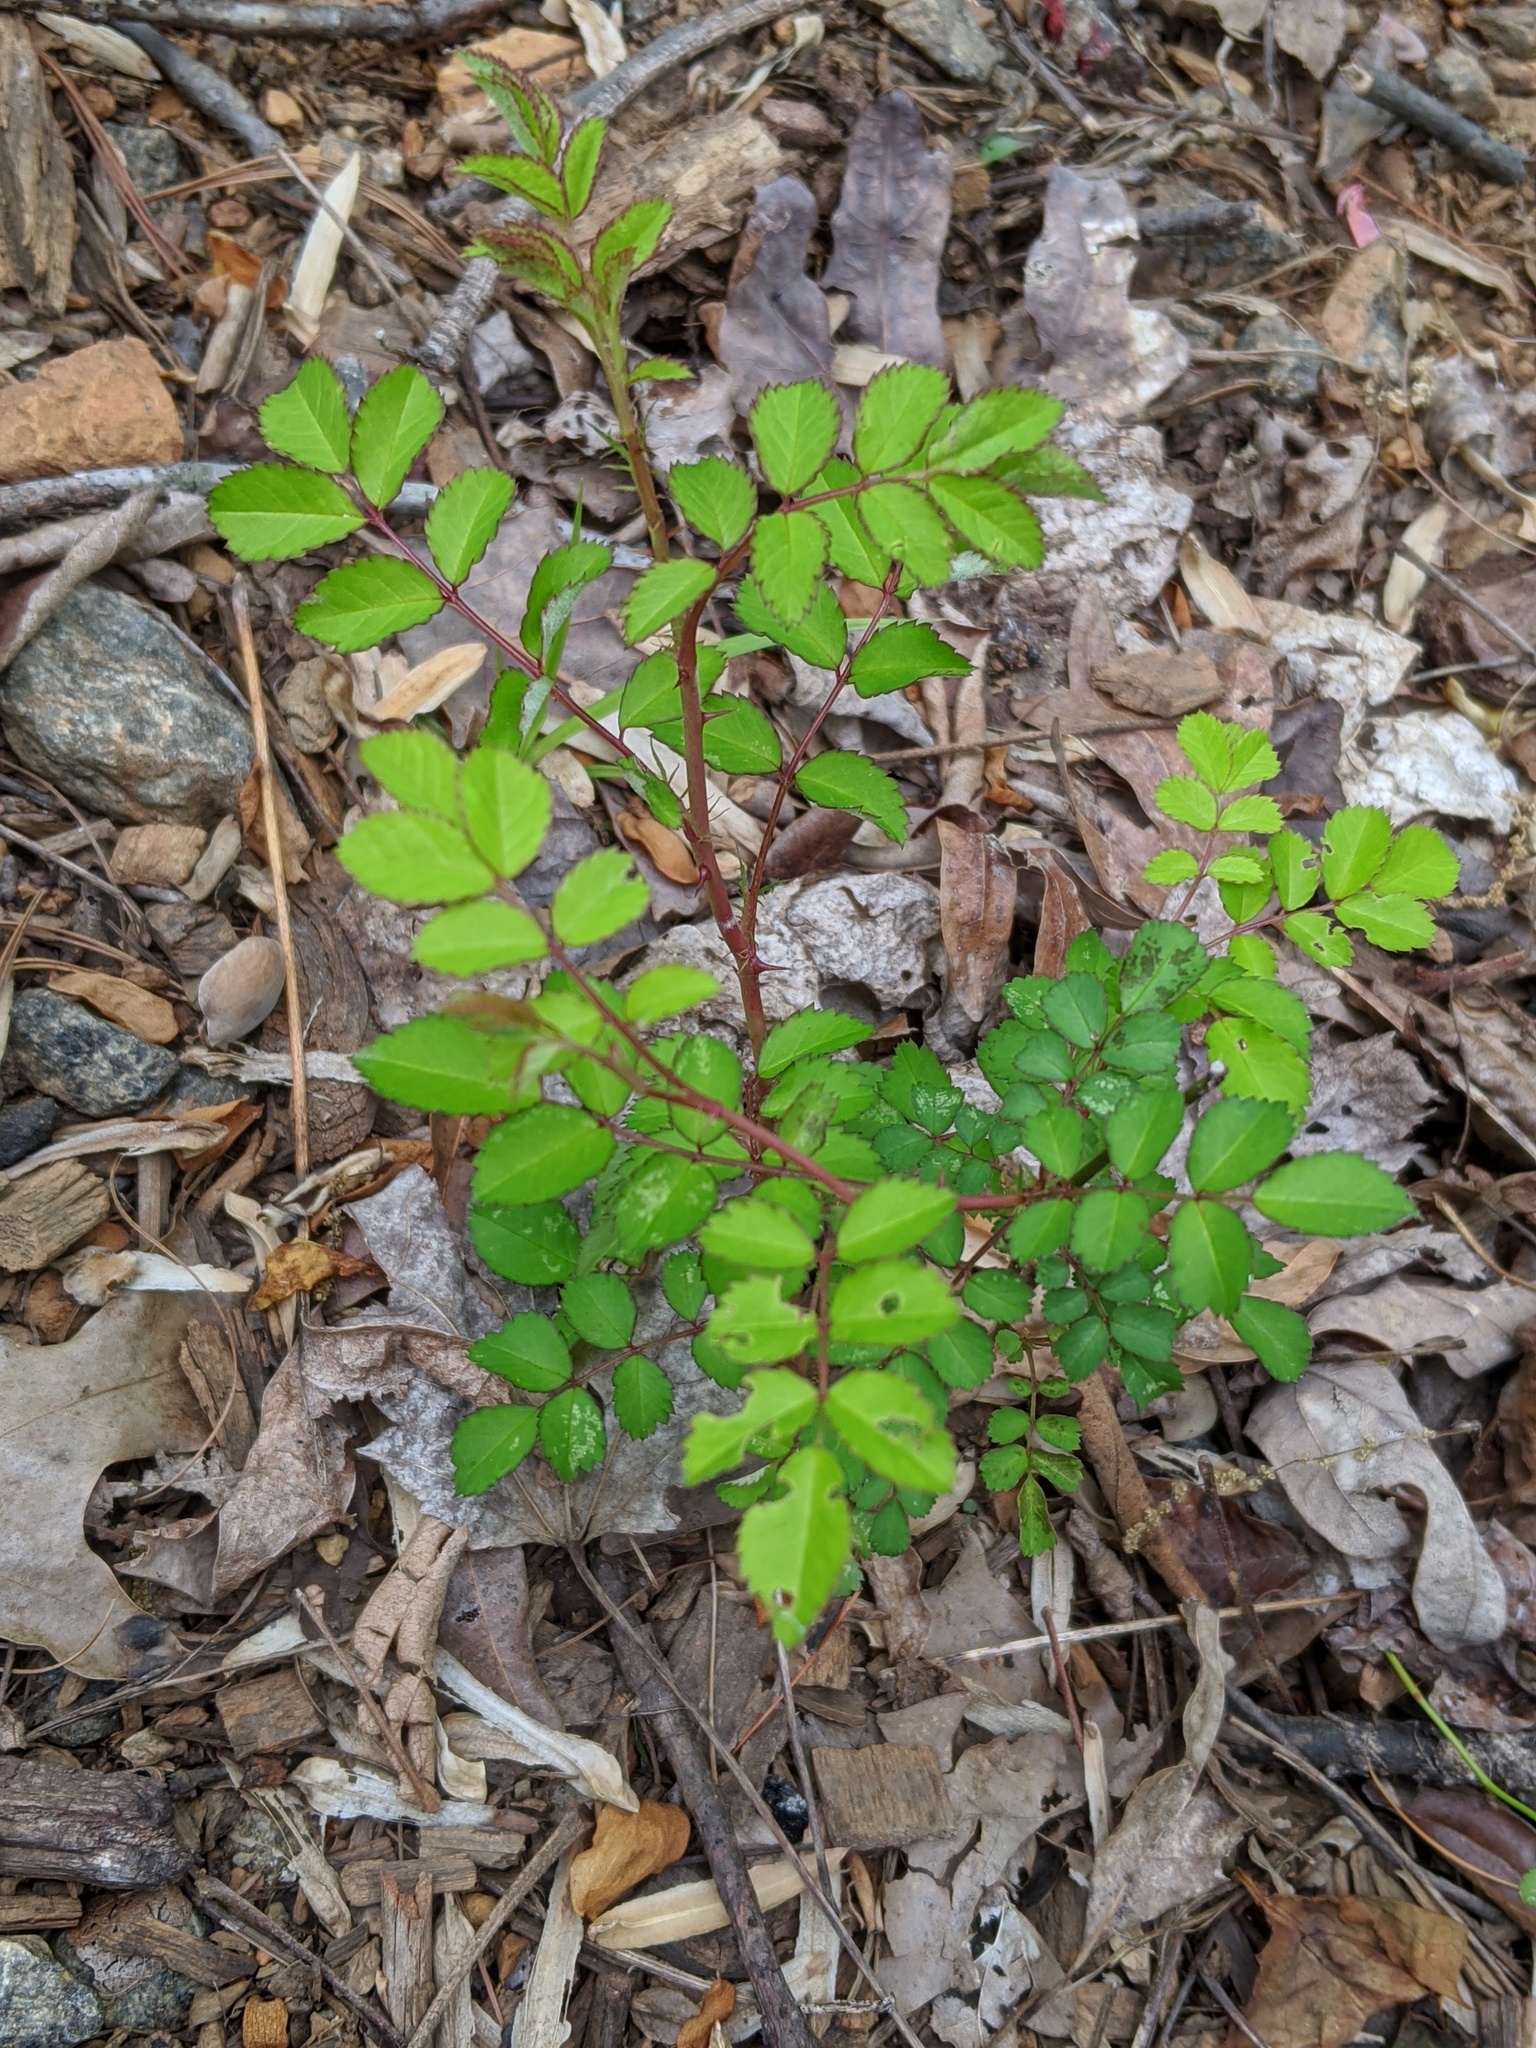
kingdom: Plantae
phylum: Tracheophyta
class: Magnoliopsida
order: Rosales
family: Rosaceae
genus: Rosa
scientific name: Rosa multiflora
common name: Multiflora rose
